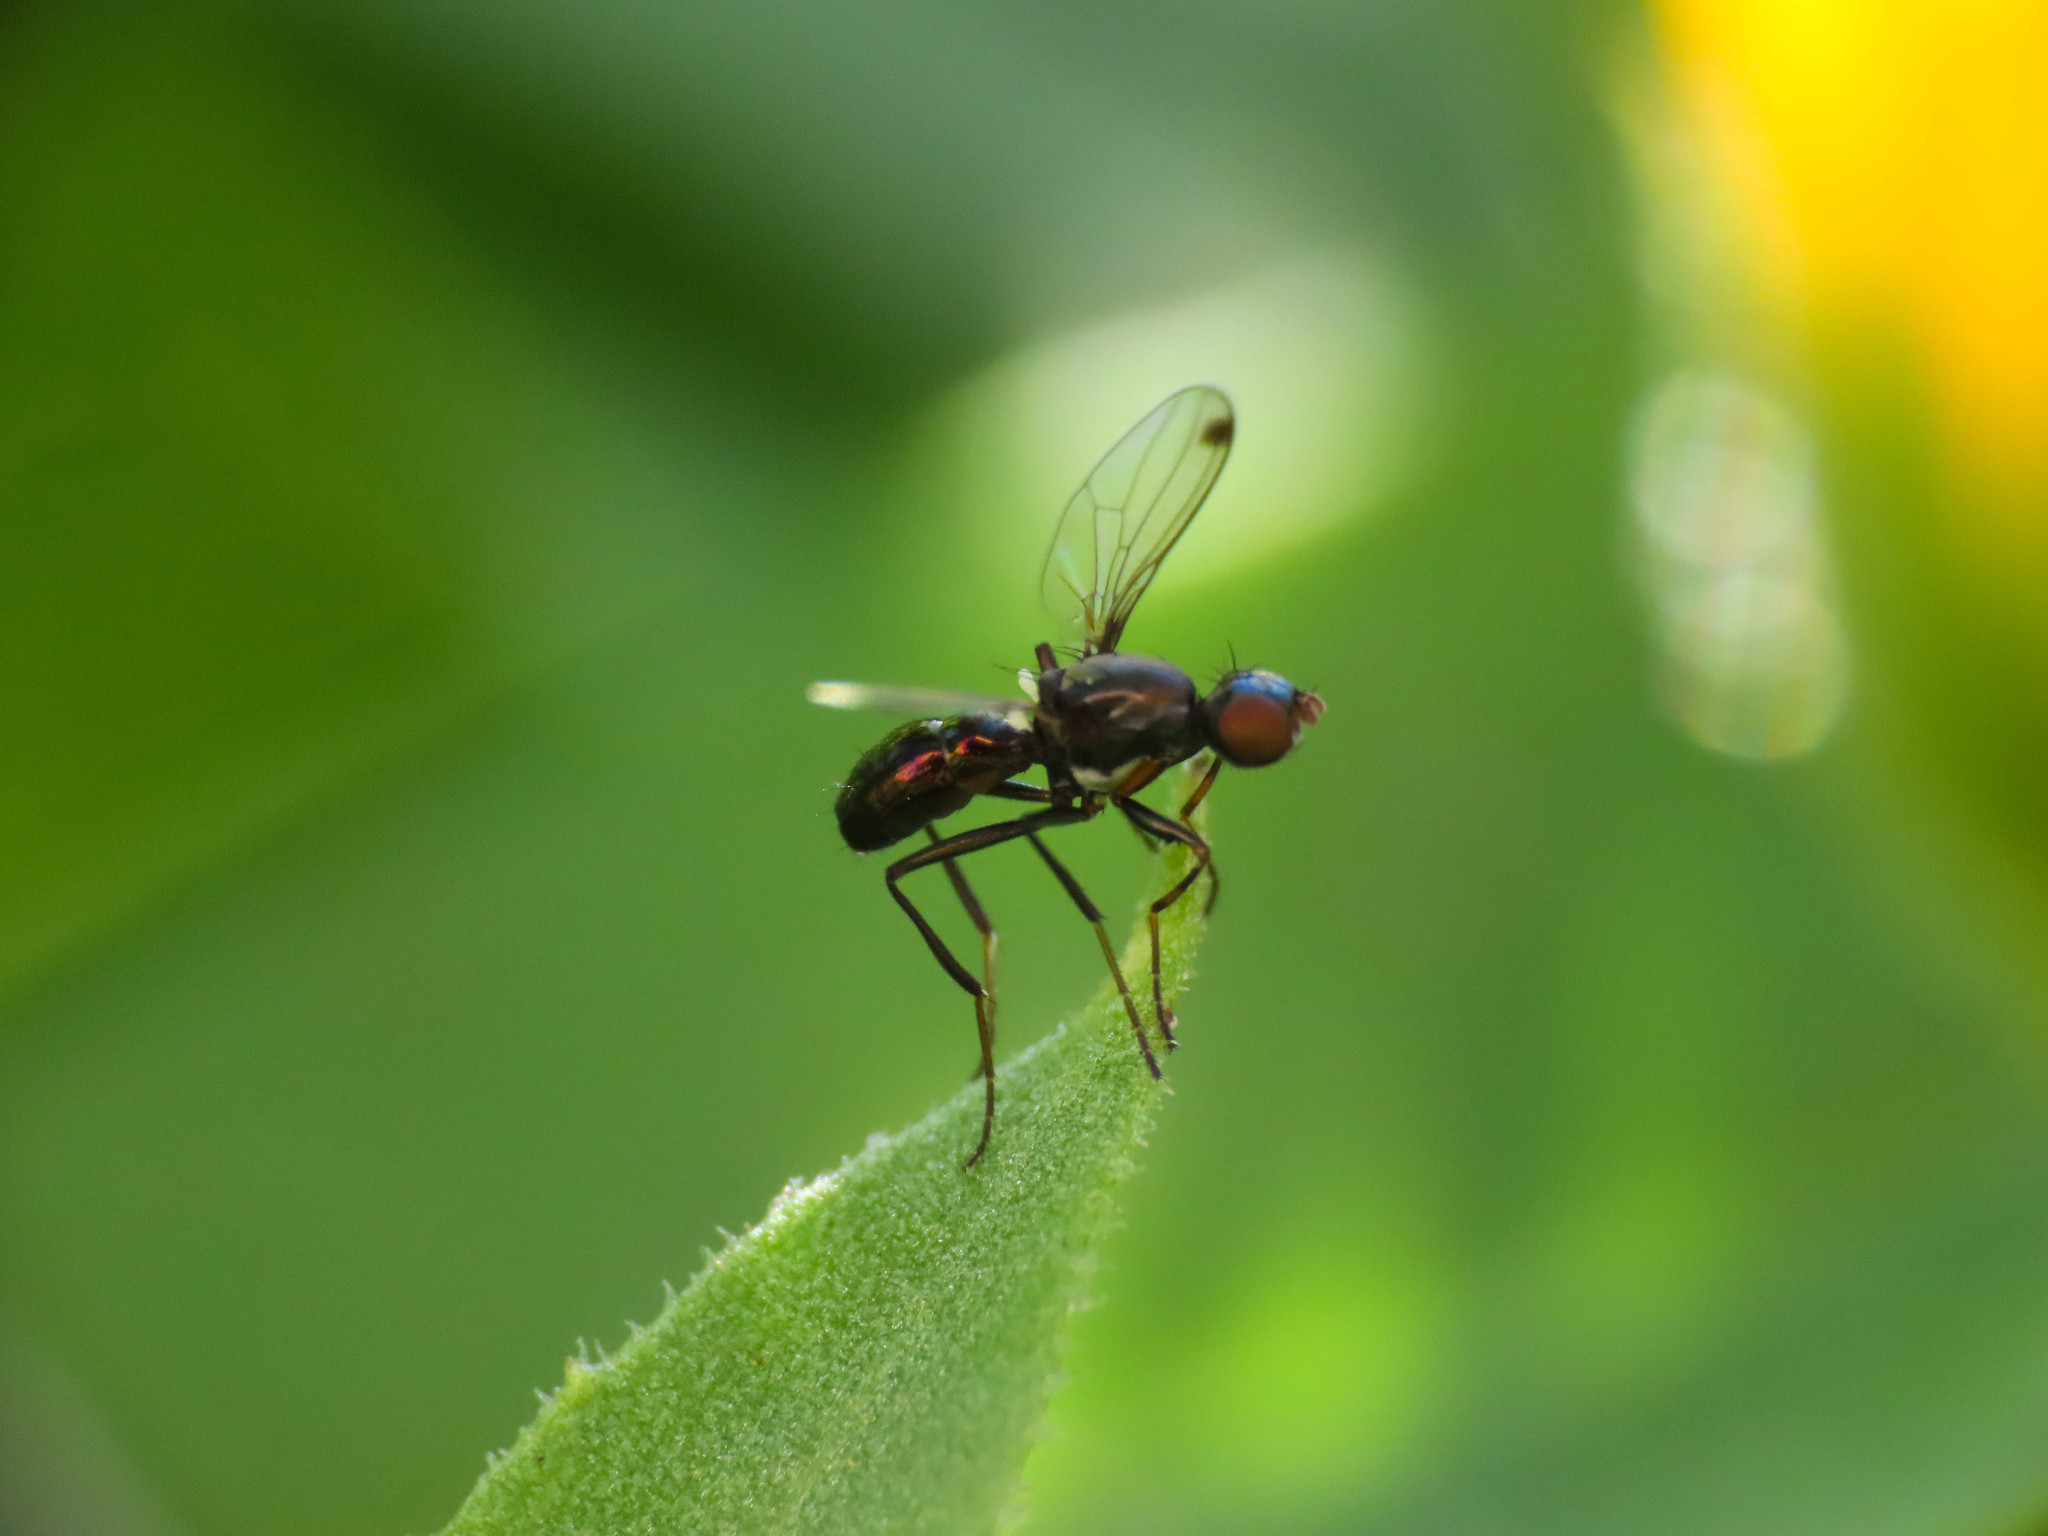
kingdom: Animalia
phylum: Arthropoda
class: Insecta
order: Diptera
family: Sepsidae
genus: Sepsis
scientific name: Sepsis fulgens
